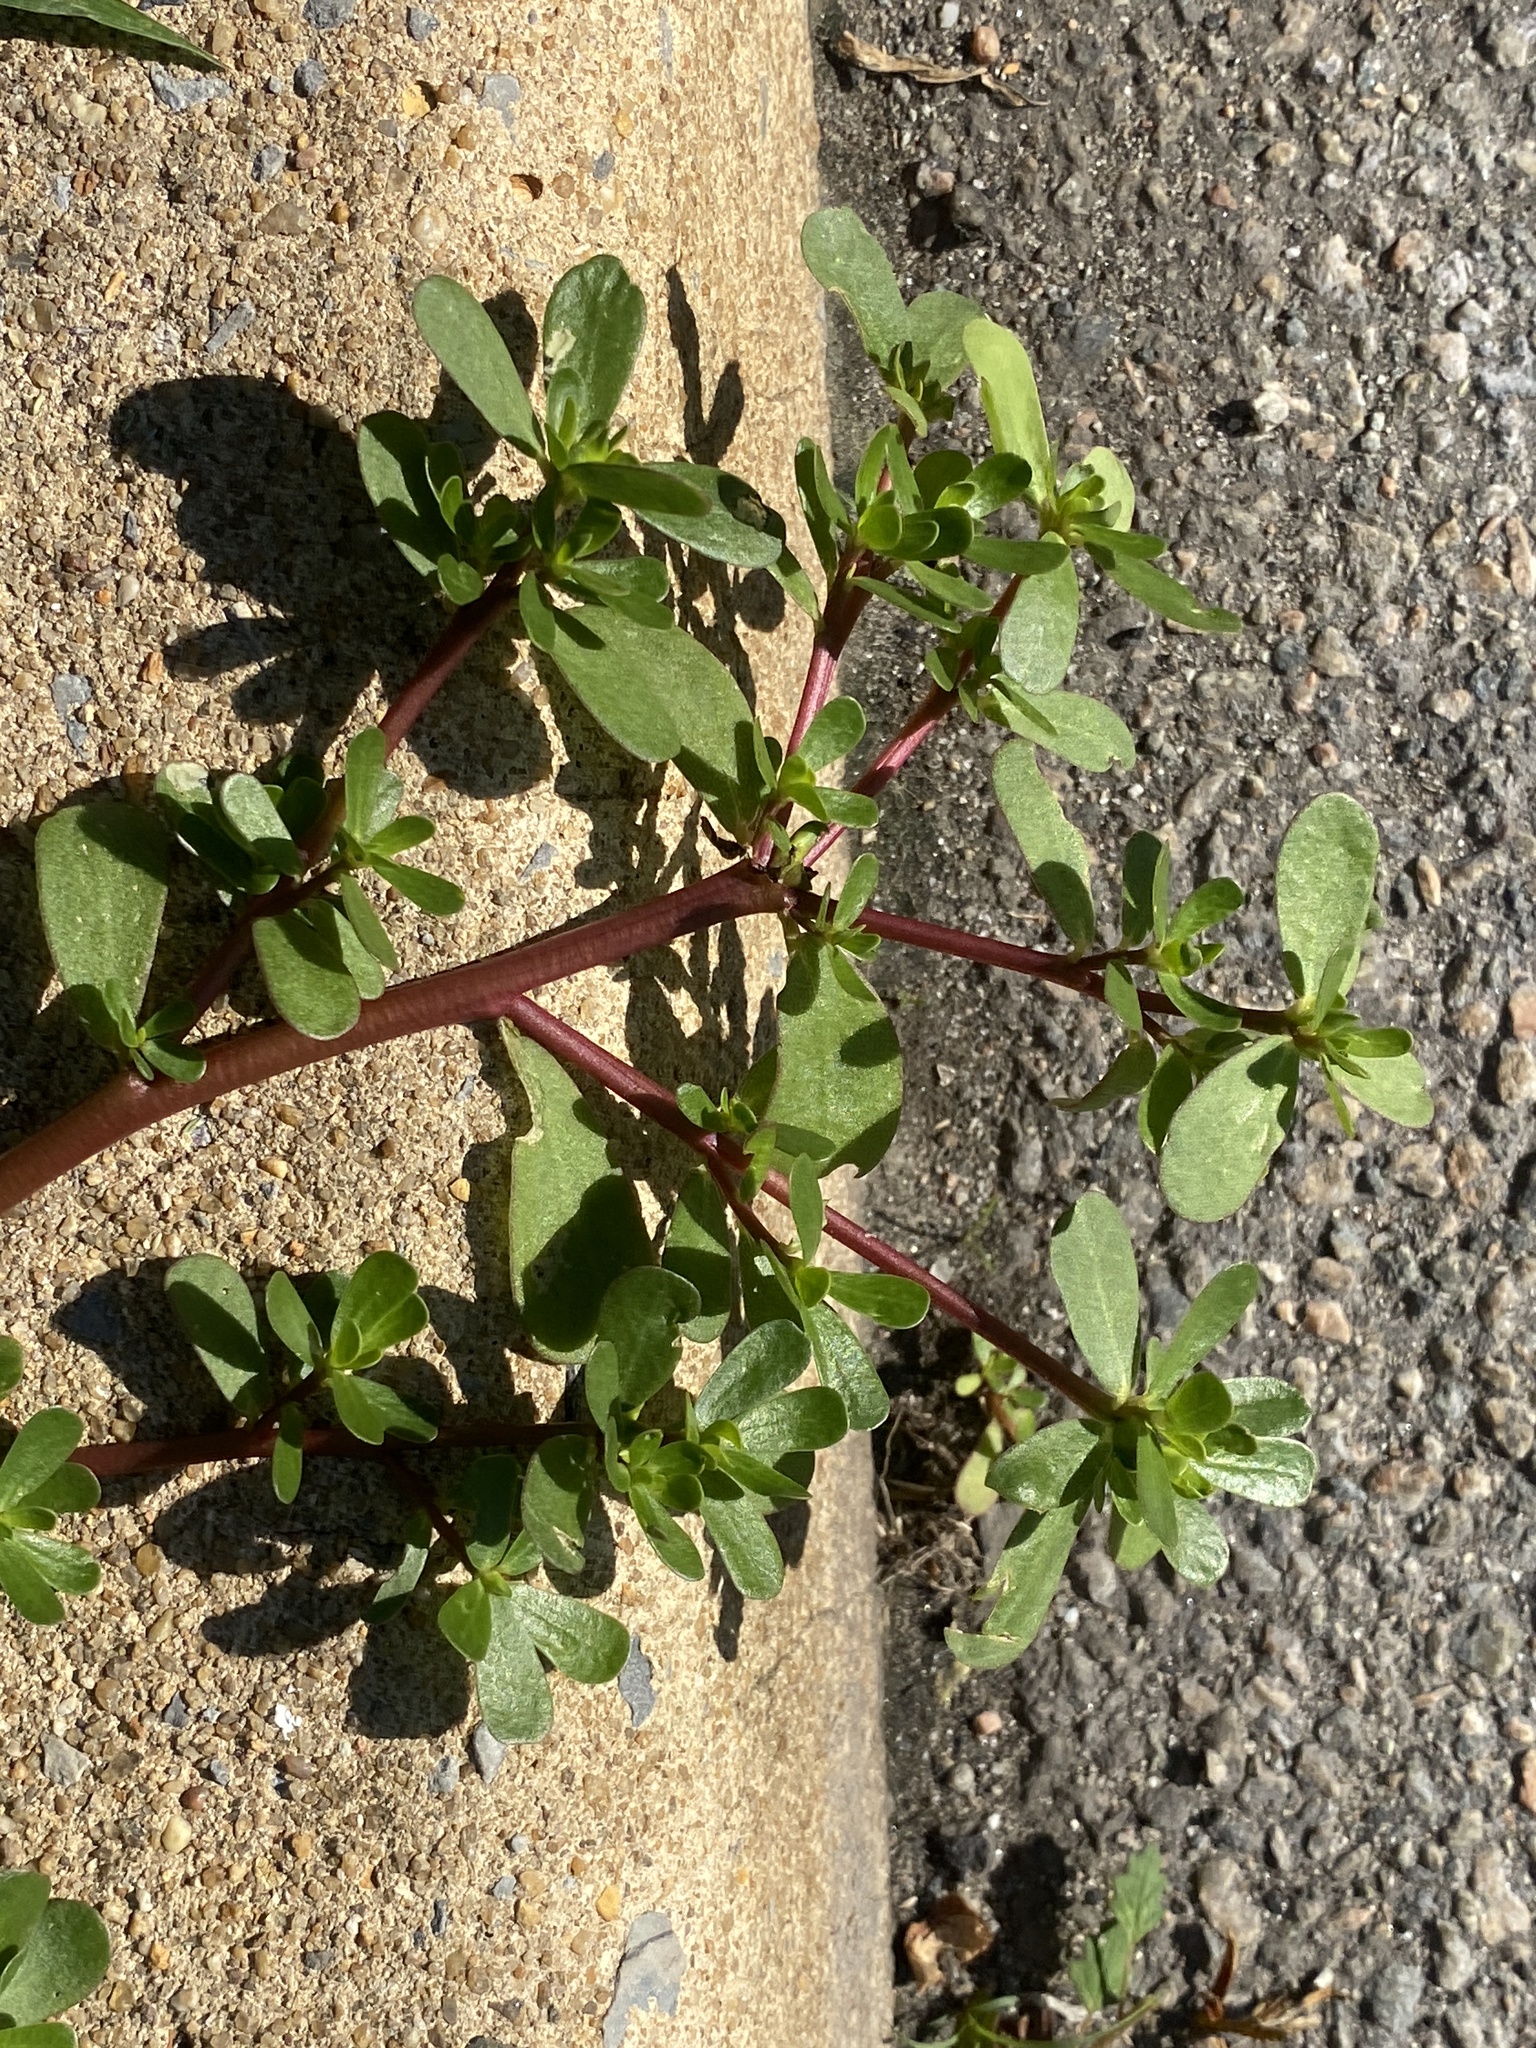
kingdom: Plantae
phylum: Tracheophyta
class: Magnoliopsida
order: Caryophyllales
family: Portulacaceae
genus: Portulaca
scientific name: Portulaca oleracea
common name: Common purslane
